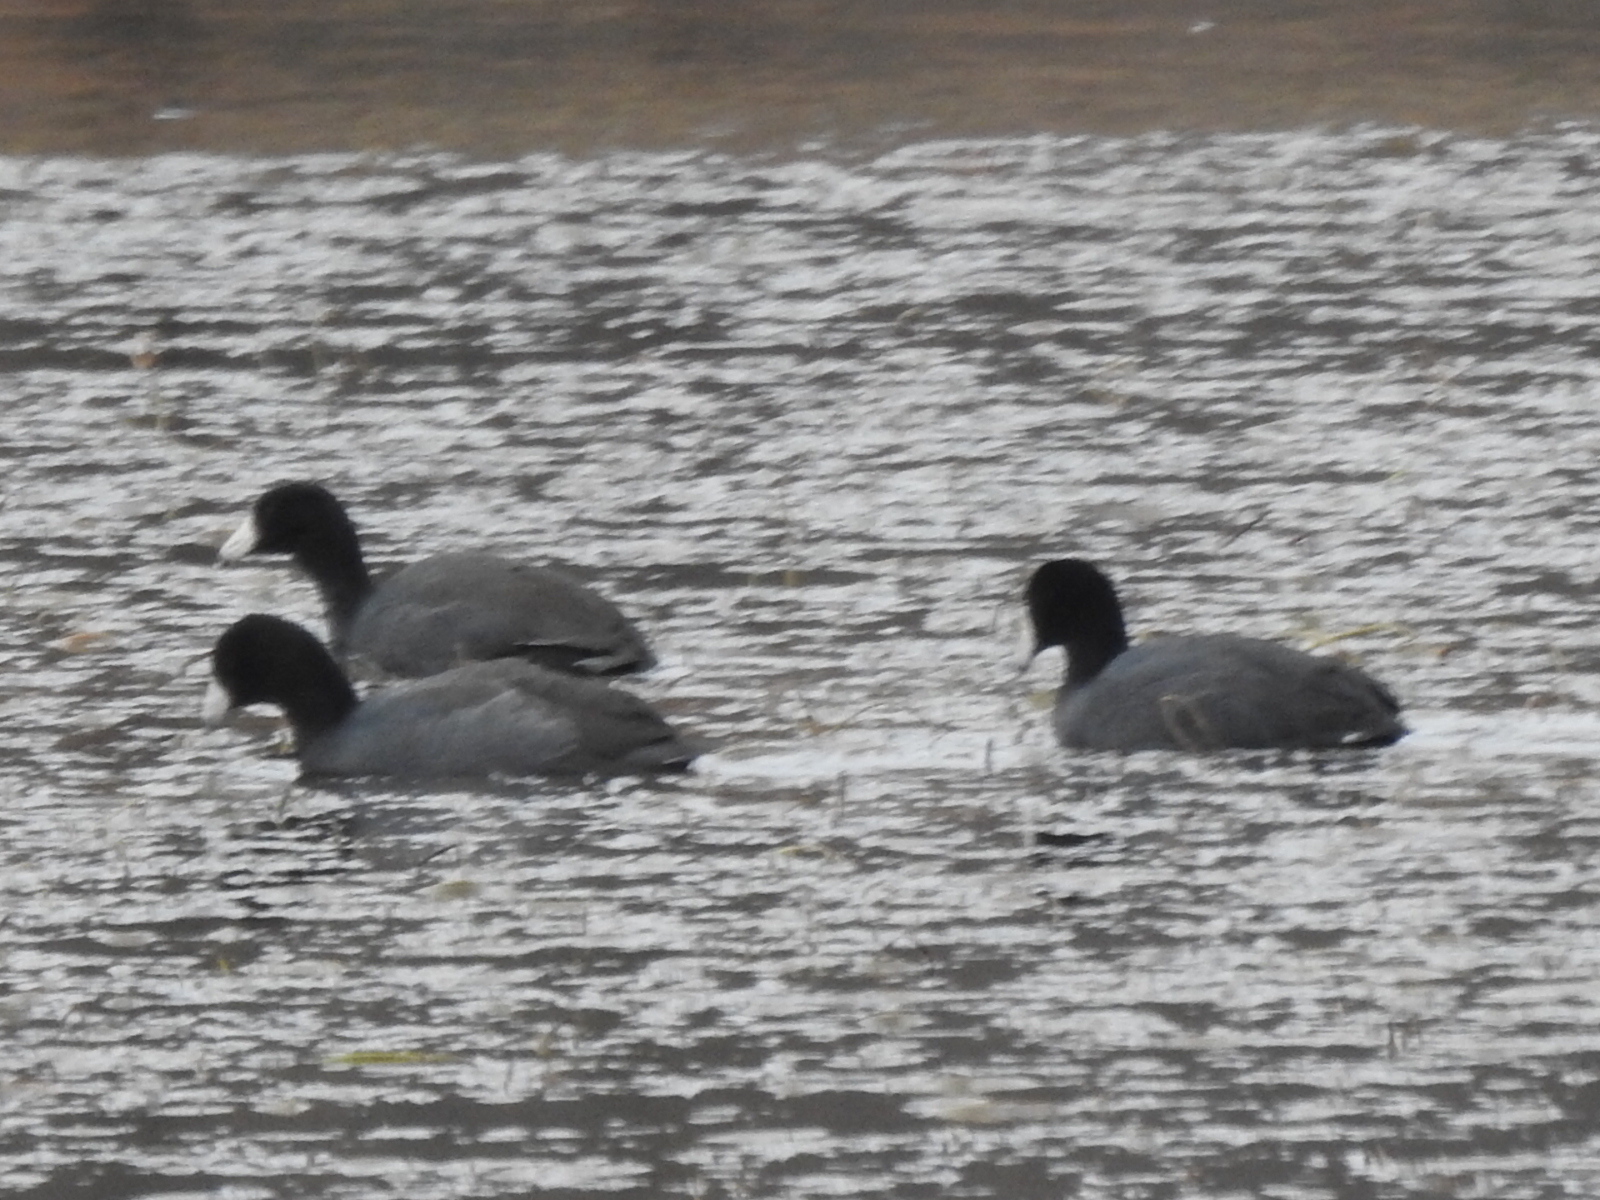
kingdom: Animalia
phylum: Chordata
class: Aves
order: Gruiformes
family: Rallidae
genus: Fulica
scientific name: Fulica americana
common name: American coot
